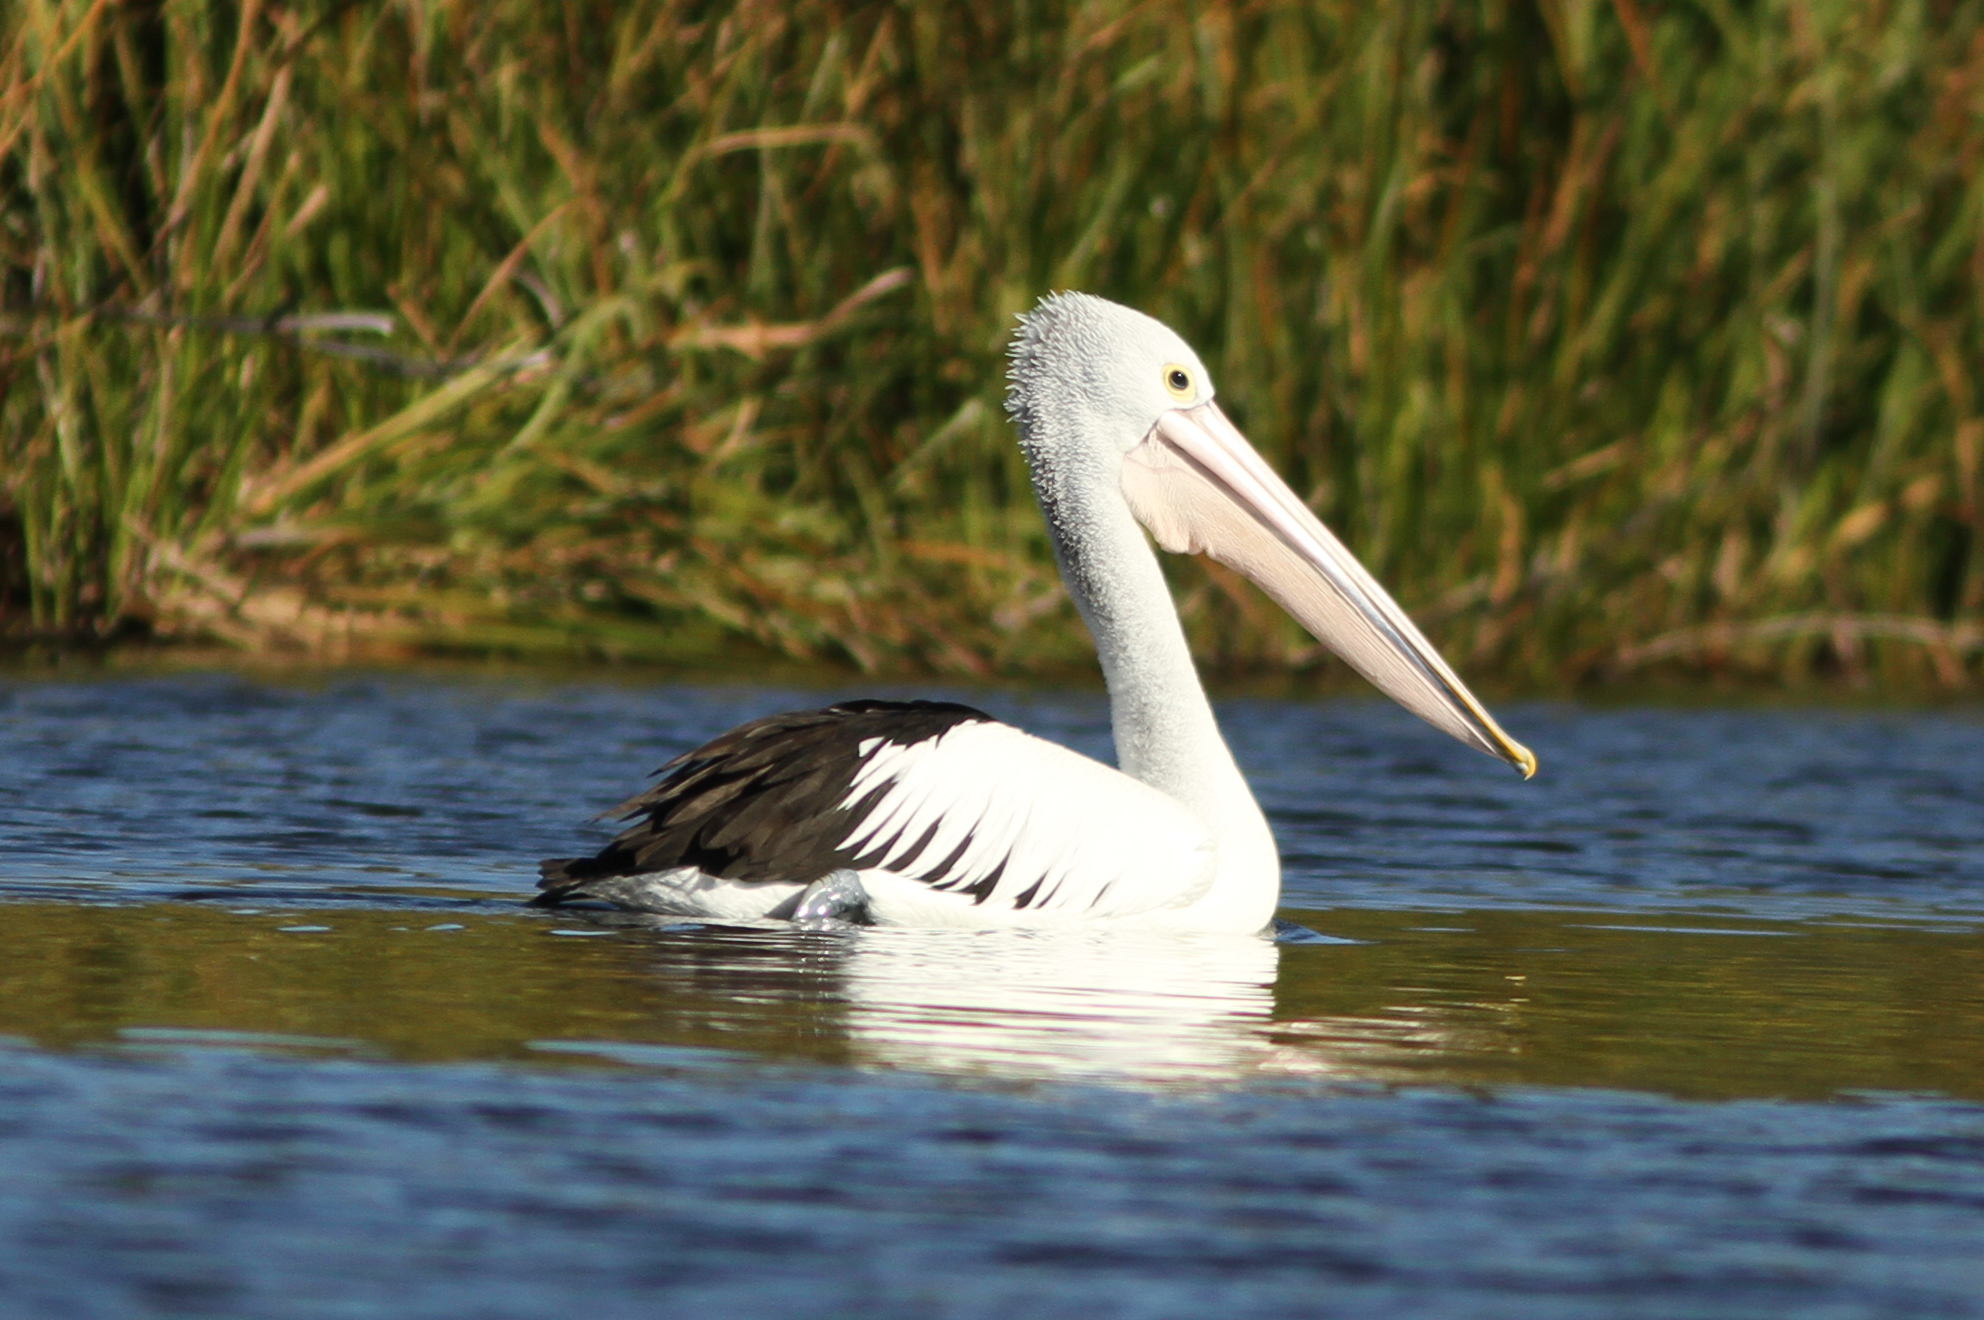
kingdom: Animalia
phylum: Chordata
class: Aves
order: Pelecaniformes
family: Pelecanidae
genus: Pelecanus
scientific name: Pelecanus conspicillatus
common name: Australian pelican
